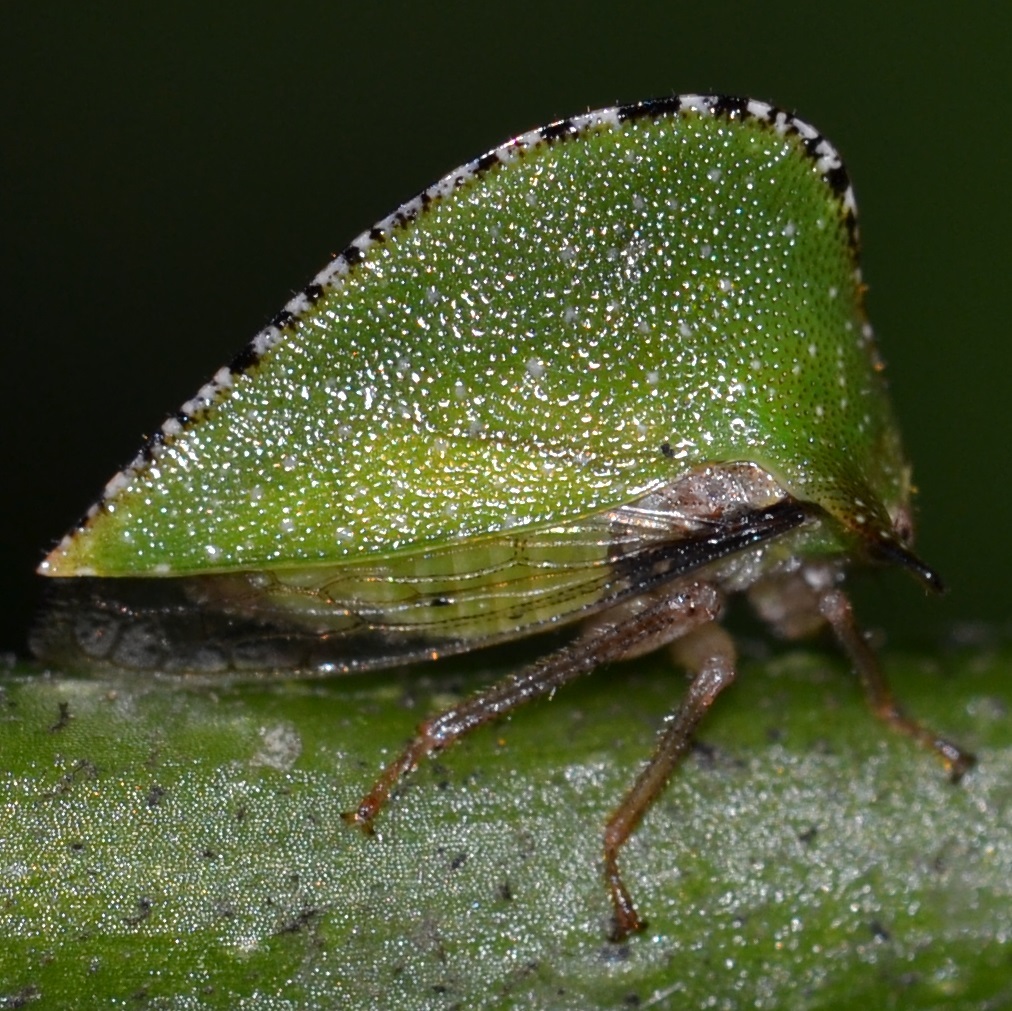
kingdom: Animalia
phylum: Arthropoda
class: Insecta
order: Hemiptera
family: Membracidae
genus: Antianthe
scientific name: Antianthe expansa
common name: Keeled tree hopper
